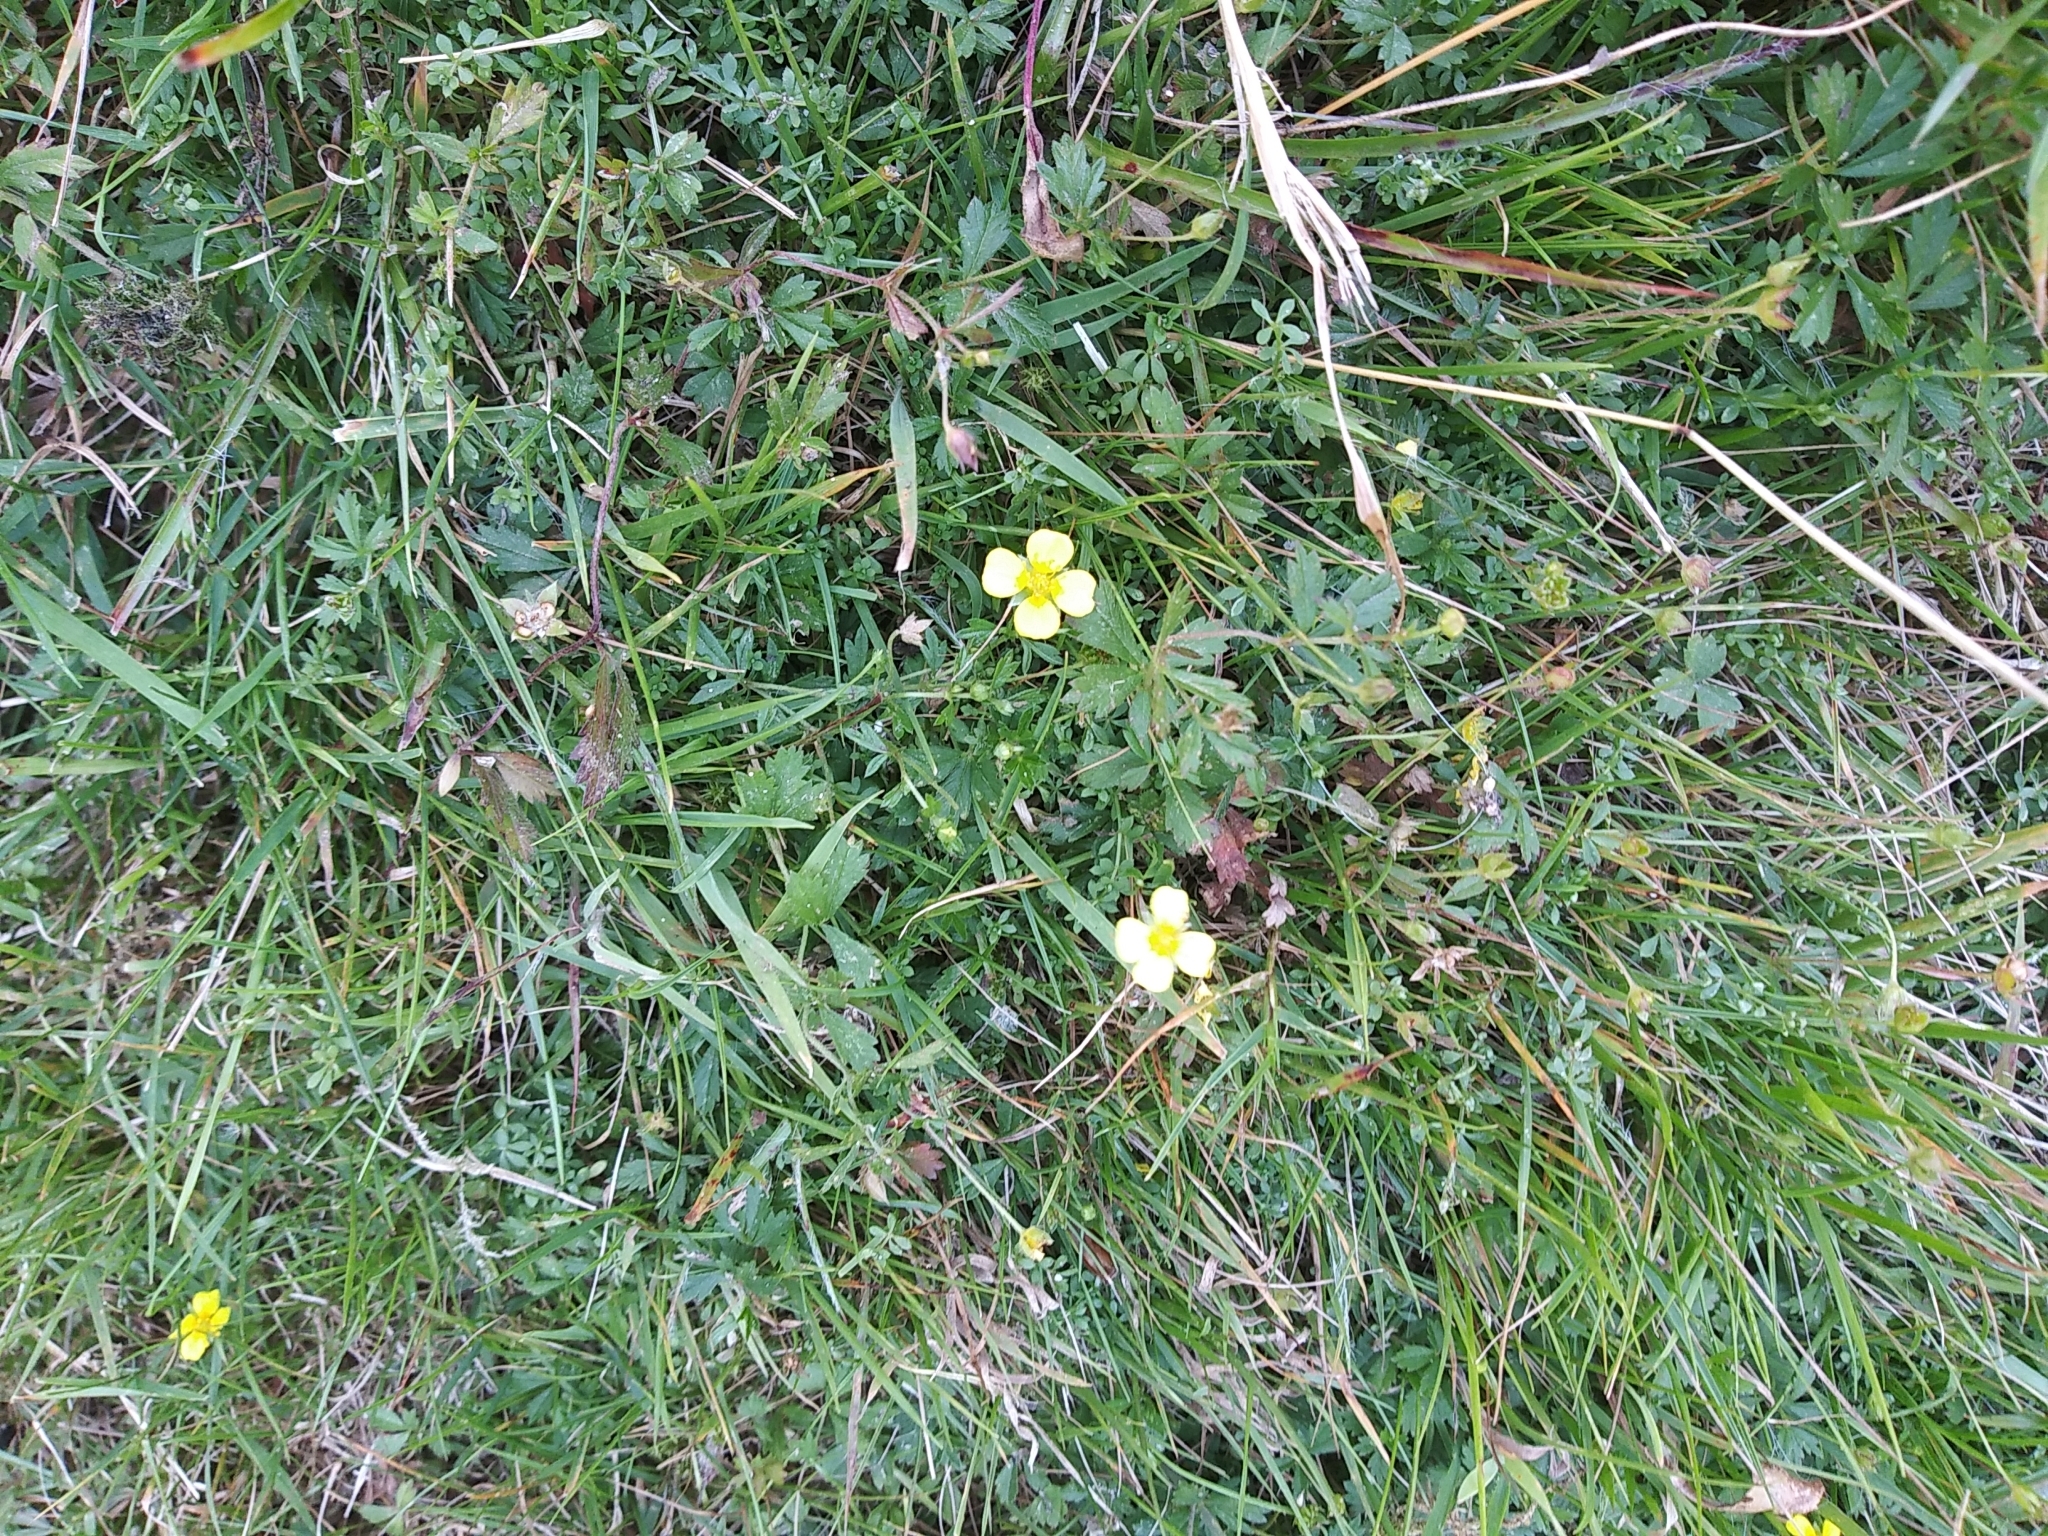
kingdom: Plantae
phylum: Tracheophyta
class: Magnoliopsida
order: Rosales
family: Rosaceae
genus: Potentilla
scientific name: Potentilla erecta
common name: Tormentil
